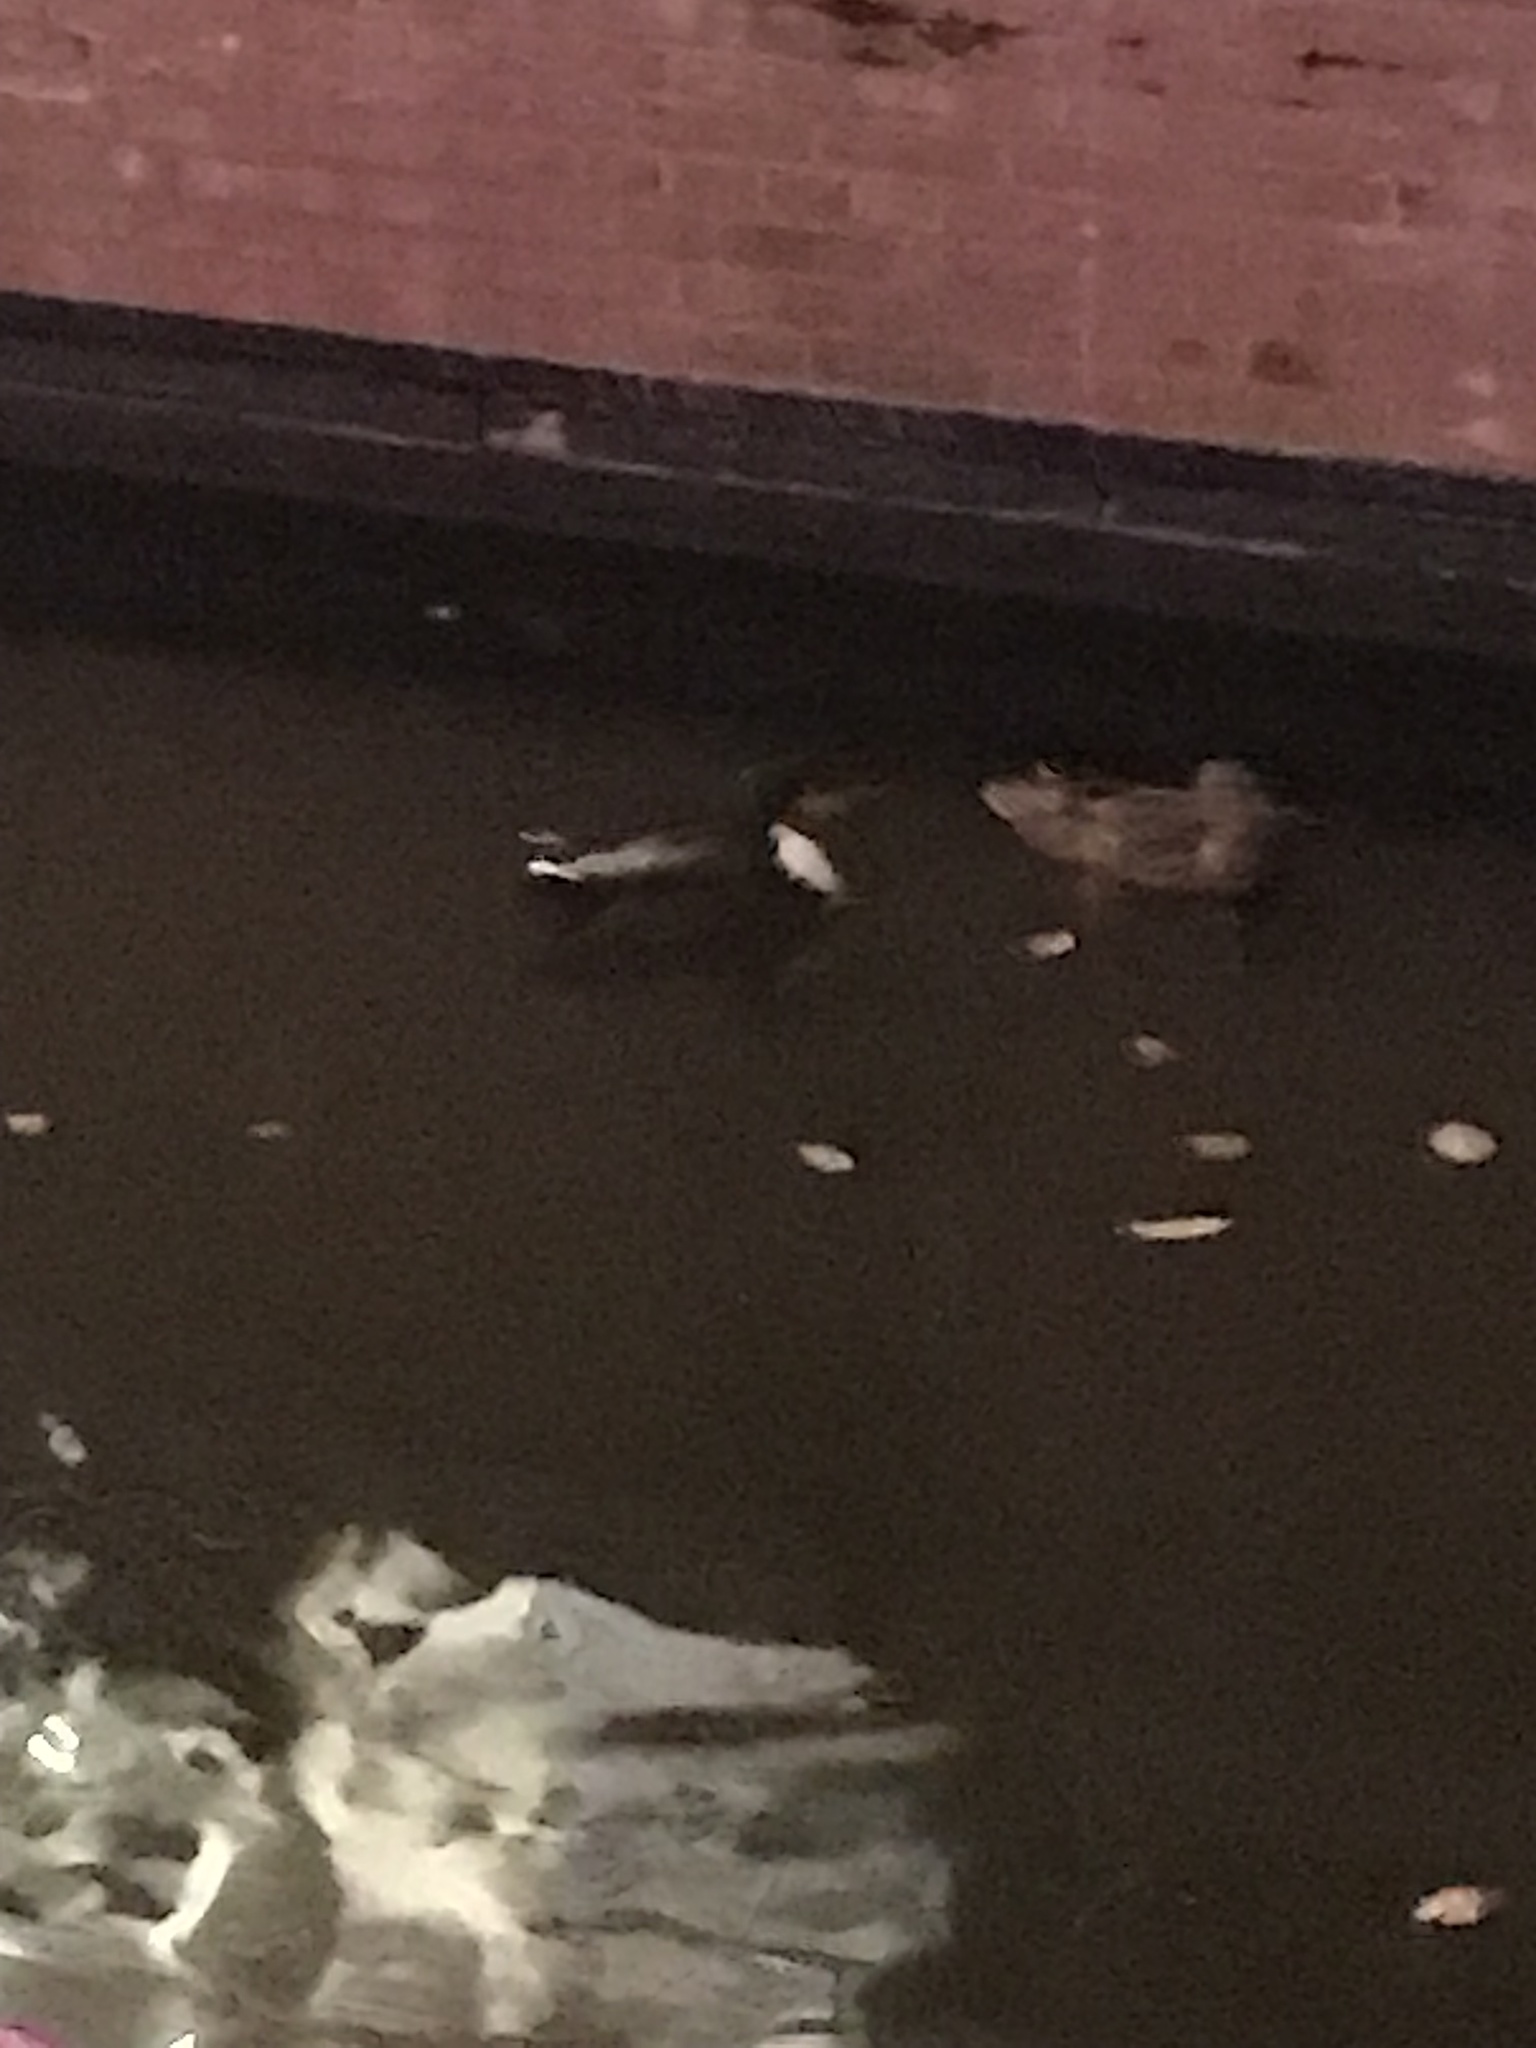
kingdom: Animalia
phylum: Chordata
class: Aves
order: Anseriformes
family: Anatidae
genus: Anas
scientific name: Anas platyrhynchos
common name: Mallard
